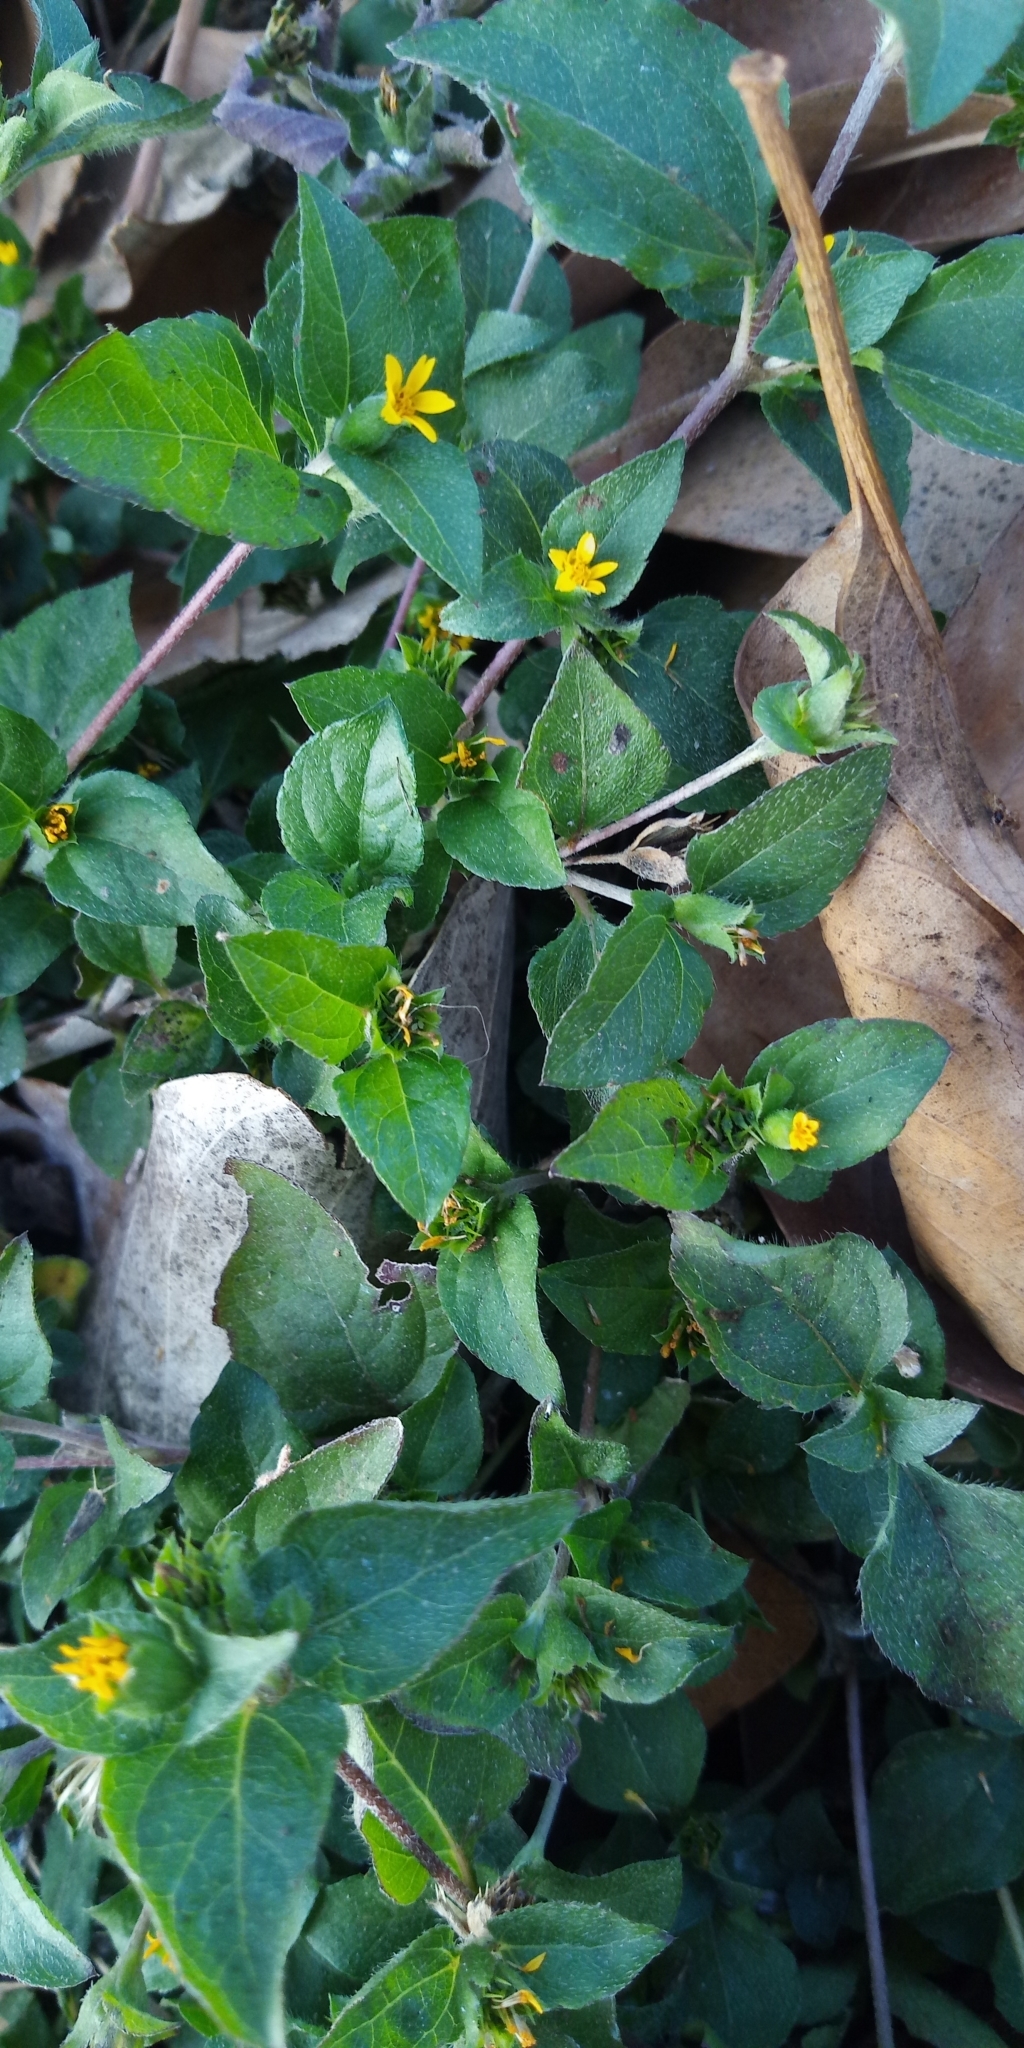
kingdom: Plantae
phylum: Tracheophyta
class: Magnoliopsida
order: Asterales
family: Asteraceae
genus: Calyptocarpus
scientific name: Calyptocarpus vialis
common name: Straggler daisy
